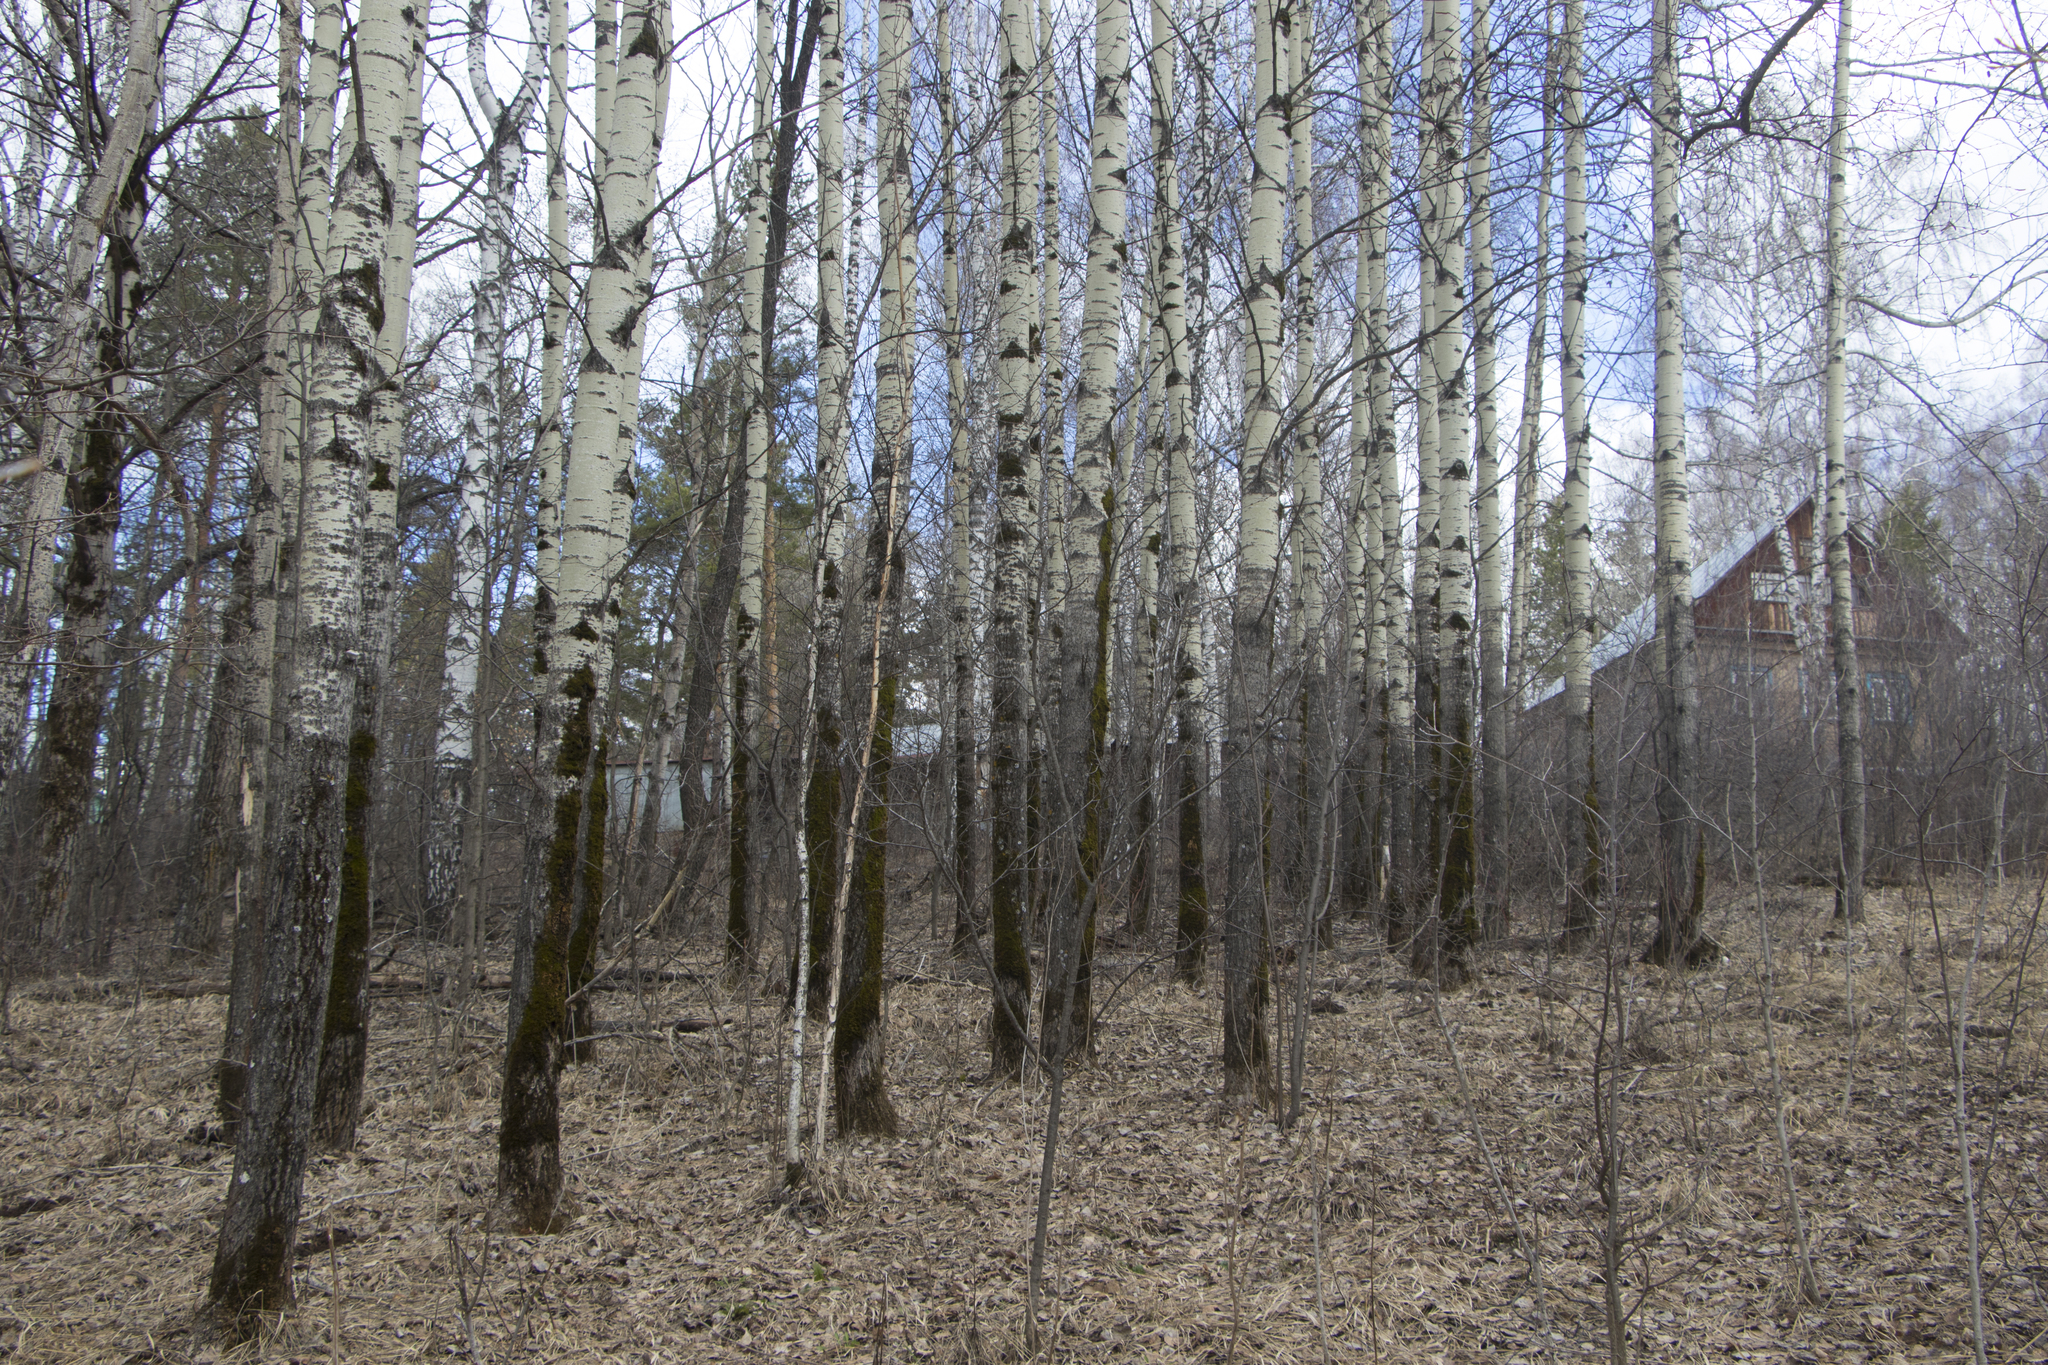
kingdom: Plantae
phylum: Tracheophyta
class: Magnoliopsida
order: Malpighiales
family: Salicaceae
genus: Populus
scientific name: Populus tremula
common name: European aspen
